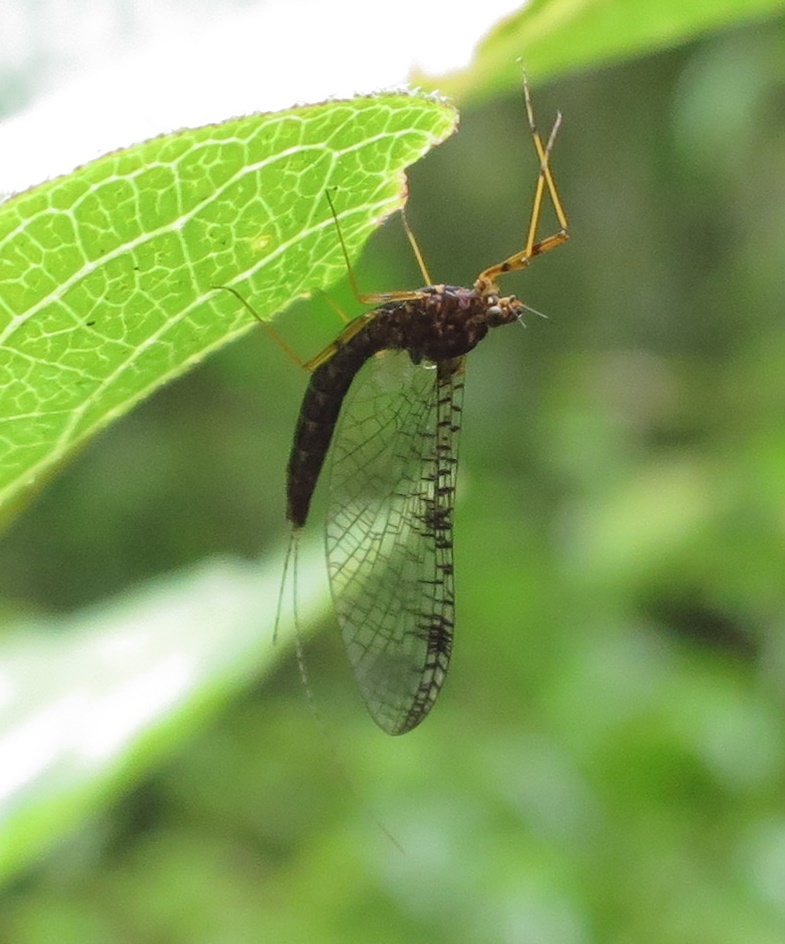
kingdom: Animalia
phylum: Arthropoda
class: Insecta
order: Ephemeroptera
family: Leptophlebiidae
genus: Neozephlebia
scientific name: Neozephlebia scita
